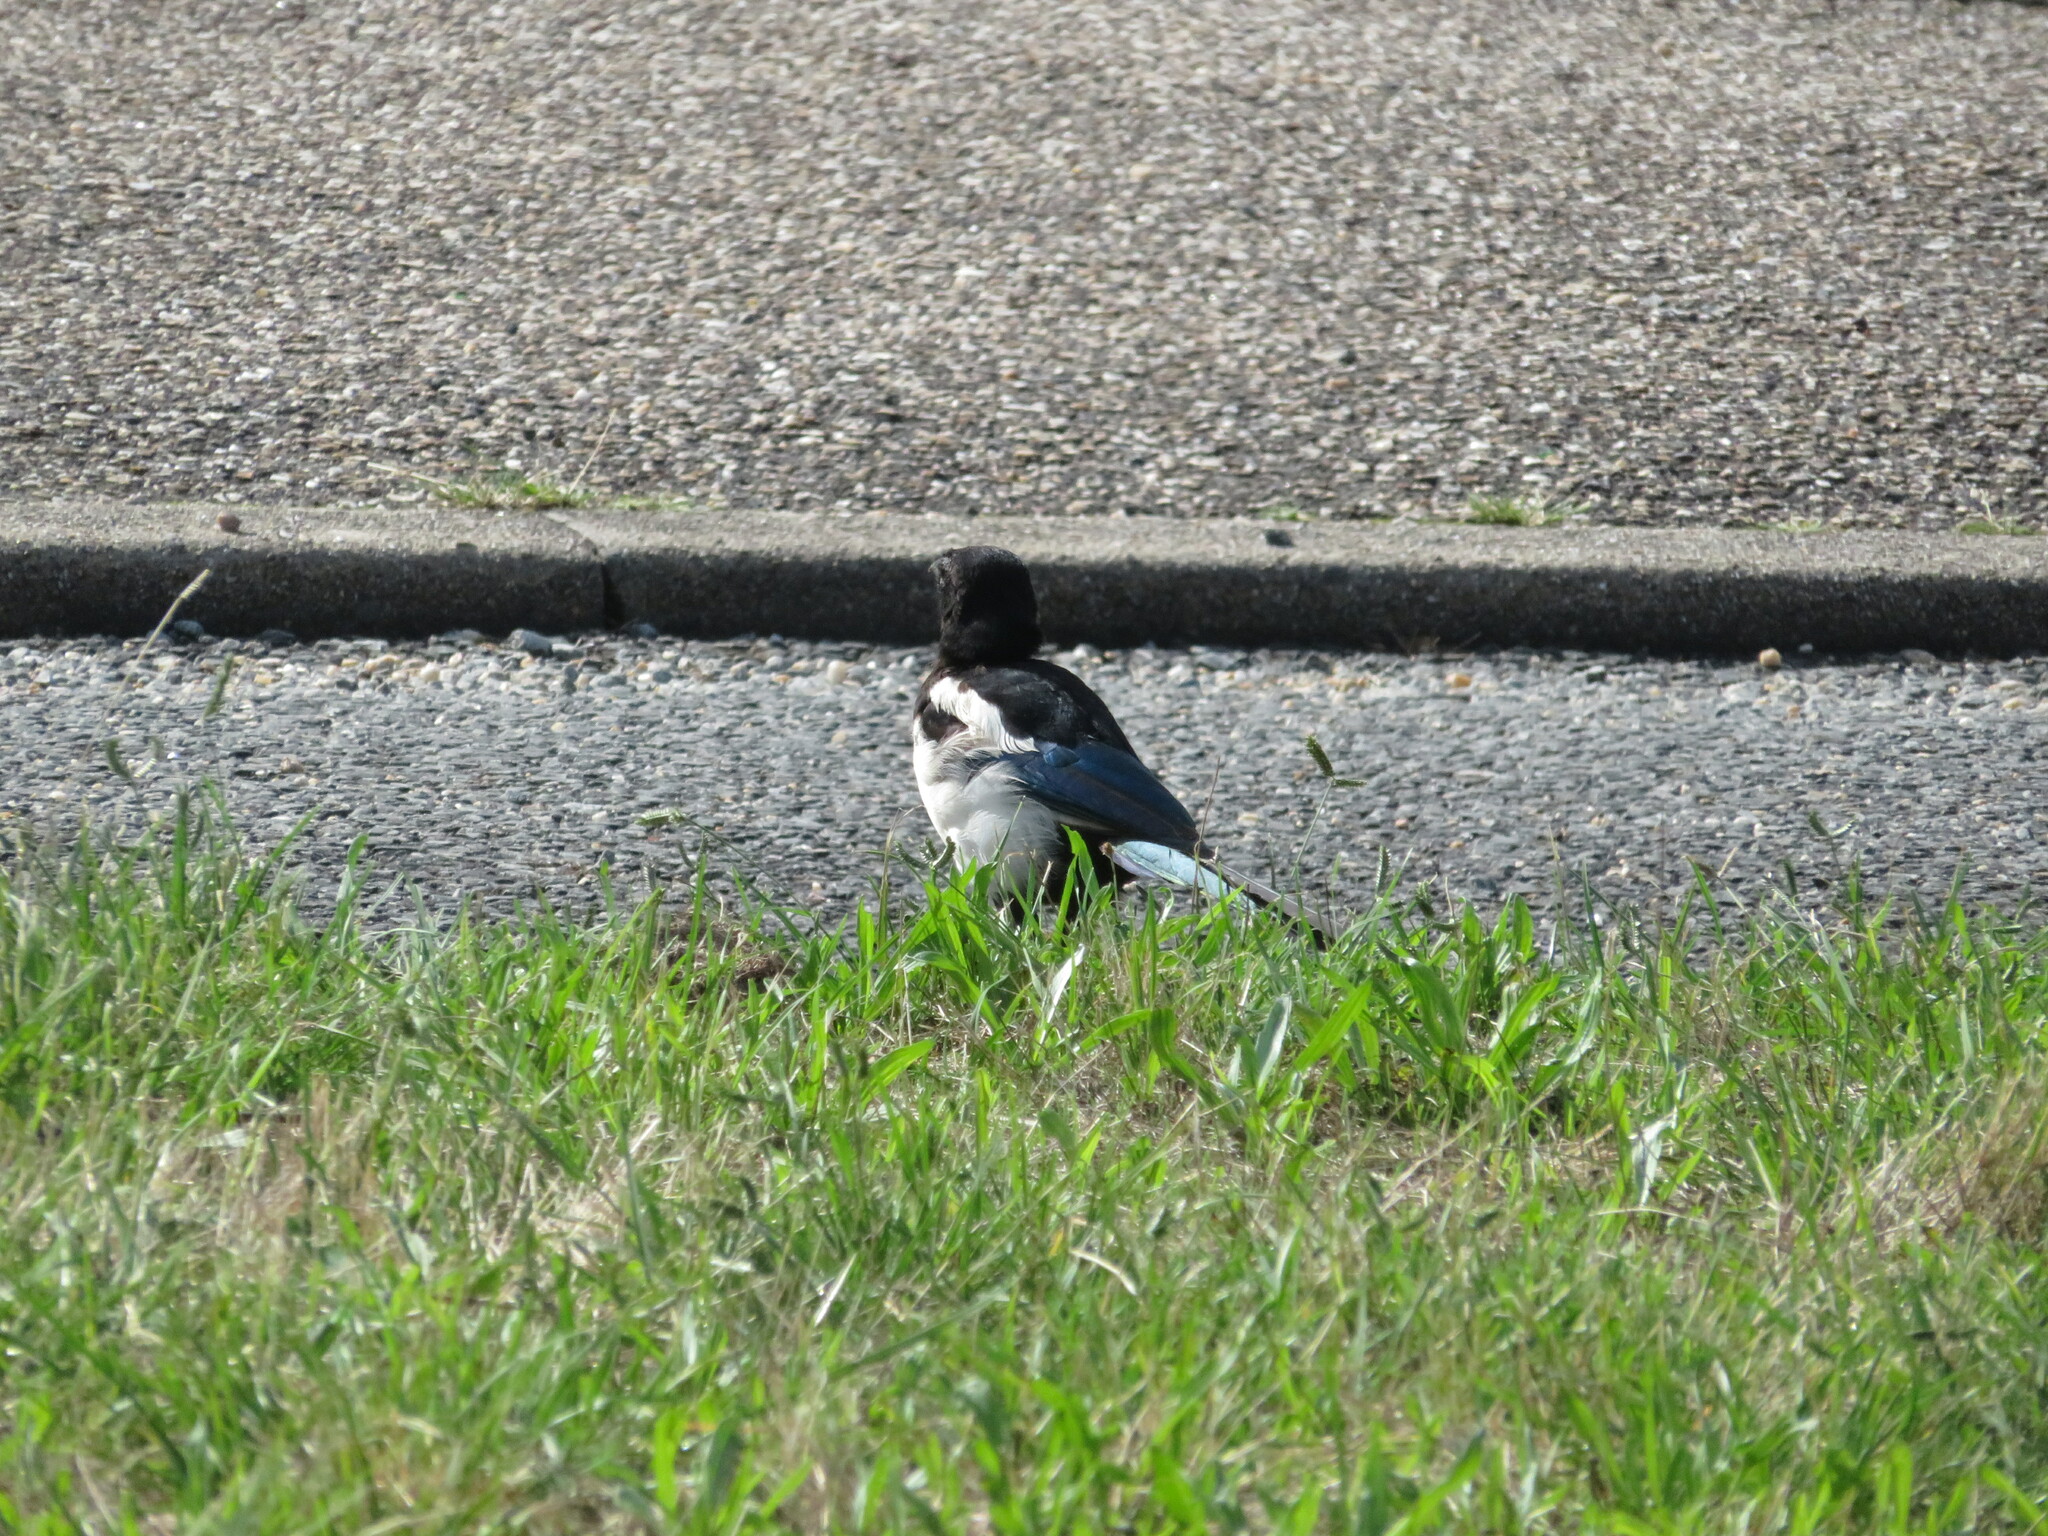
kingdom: Animalia
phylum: Chordata
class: Aves
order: Passeriformes
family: Corvidae
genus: Pica
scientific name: Pica pica
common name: Eurasian magpie
